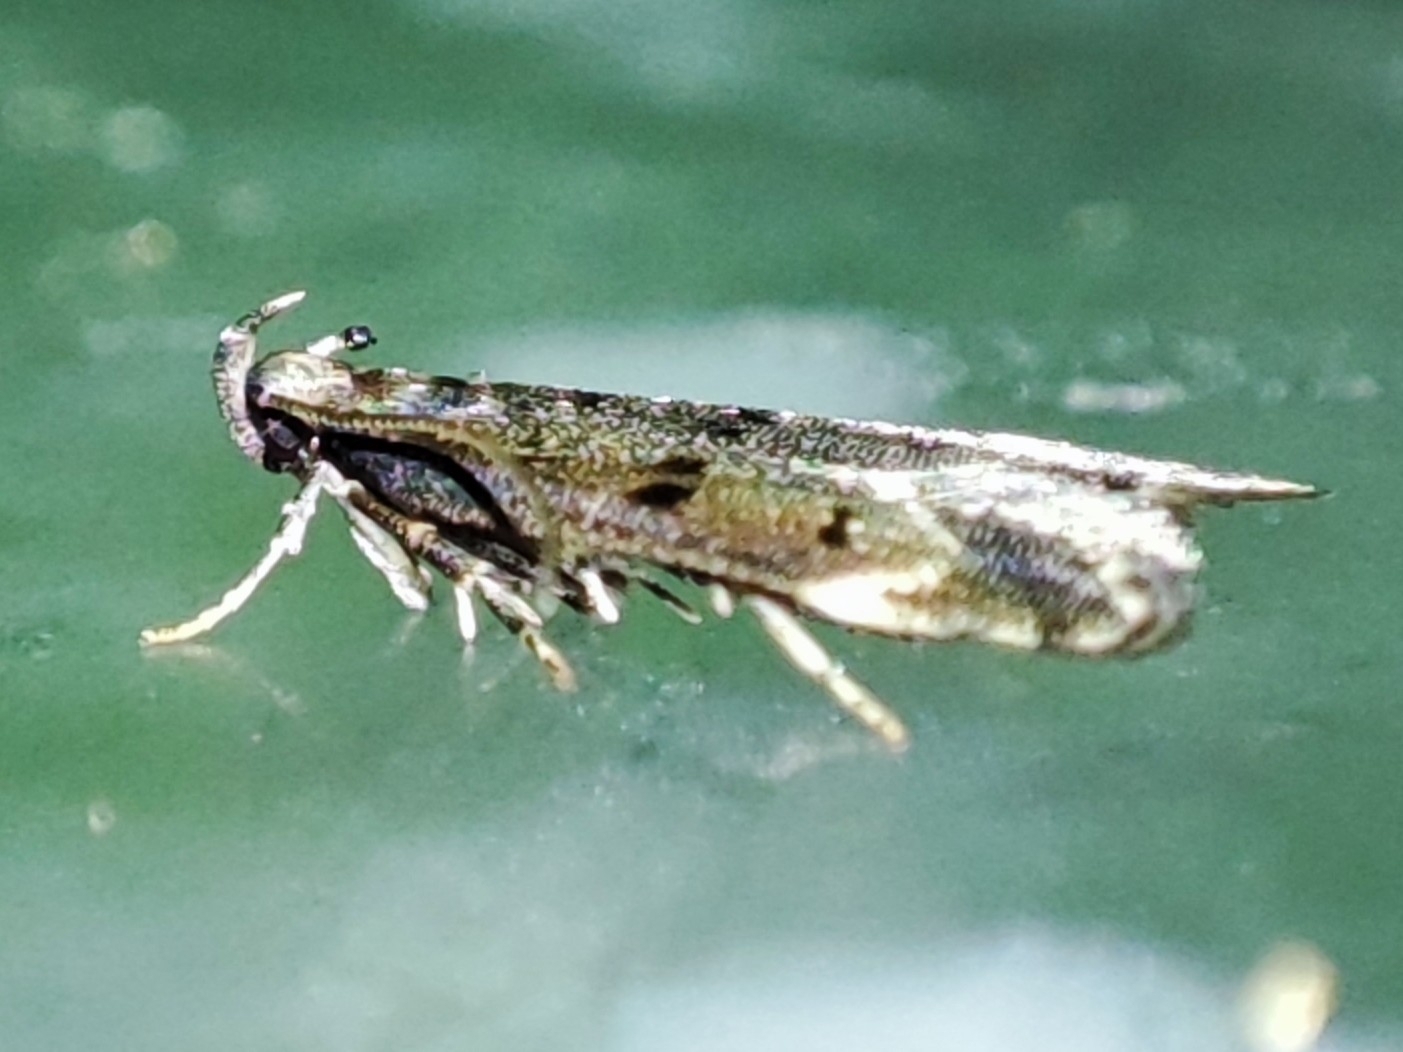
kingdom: Animalia
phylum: Arthropoda
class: Insecta
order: Lepidoptera
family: Gelechiidae
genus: Acanthophila
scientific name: Acanthophila alacella
